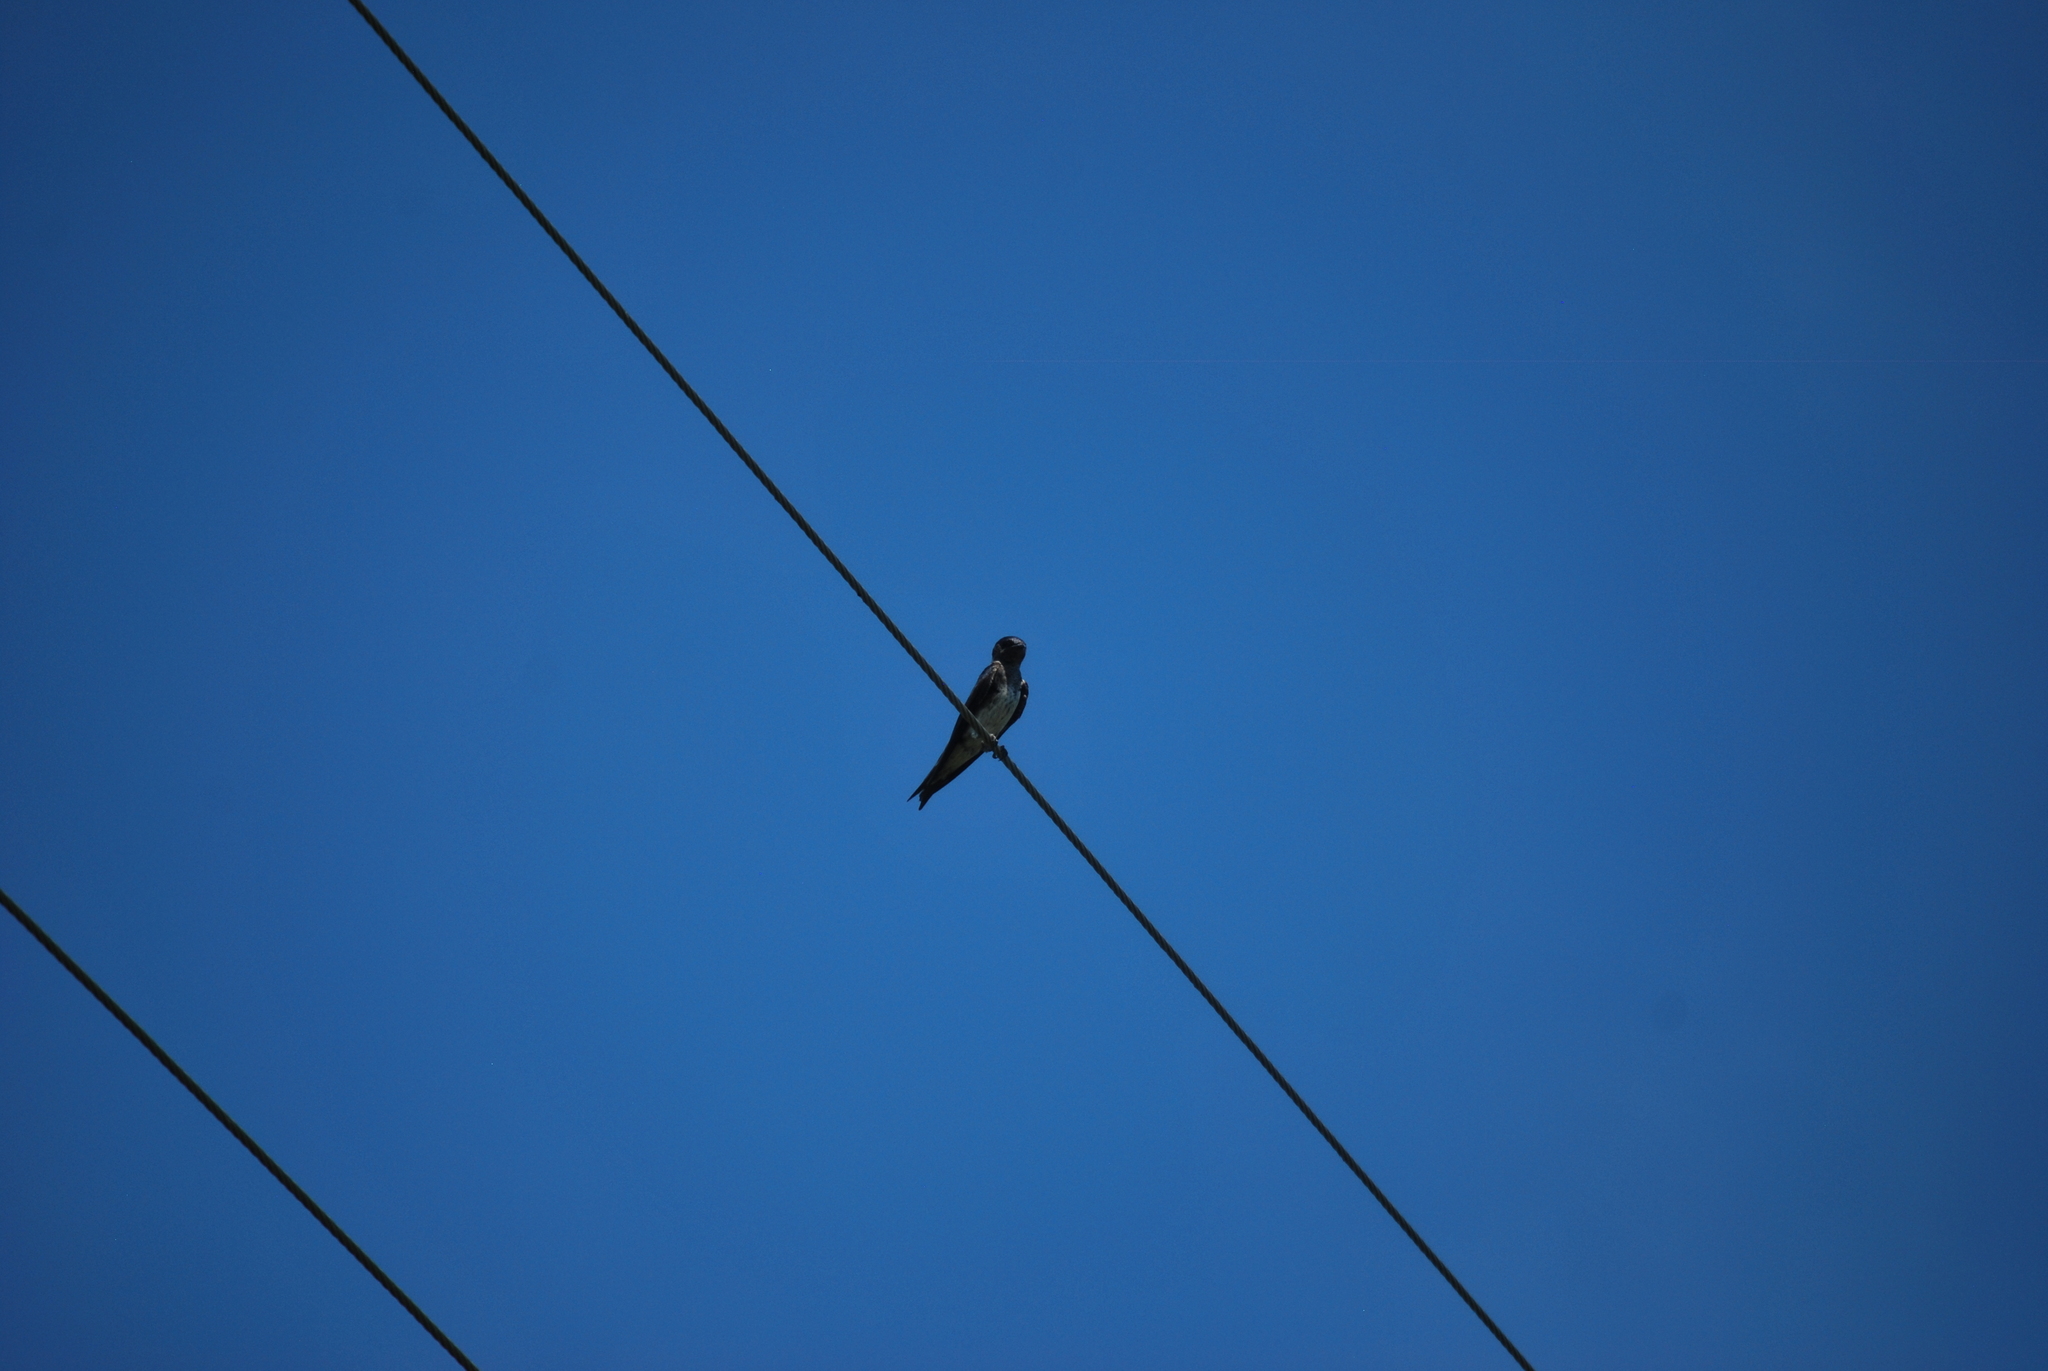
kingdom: Animalia
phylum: Chordata
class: Aves
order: Passeriformes
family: Hirundinidae
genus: Progne
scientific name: Progne subis
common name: Purple martin
